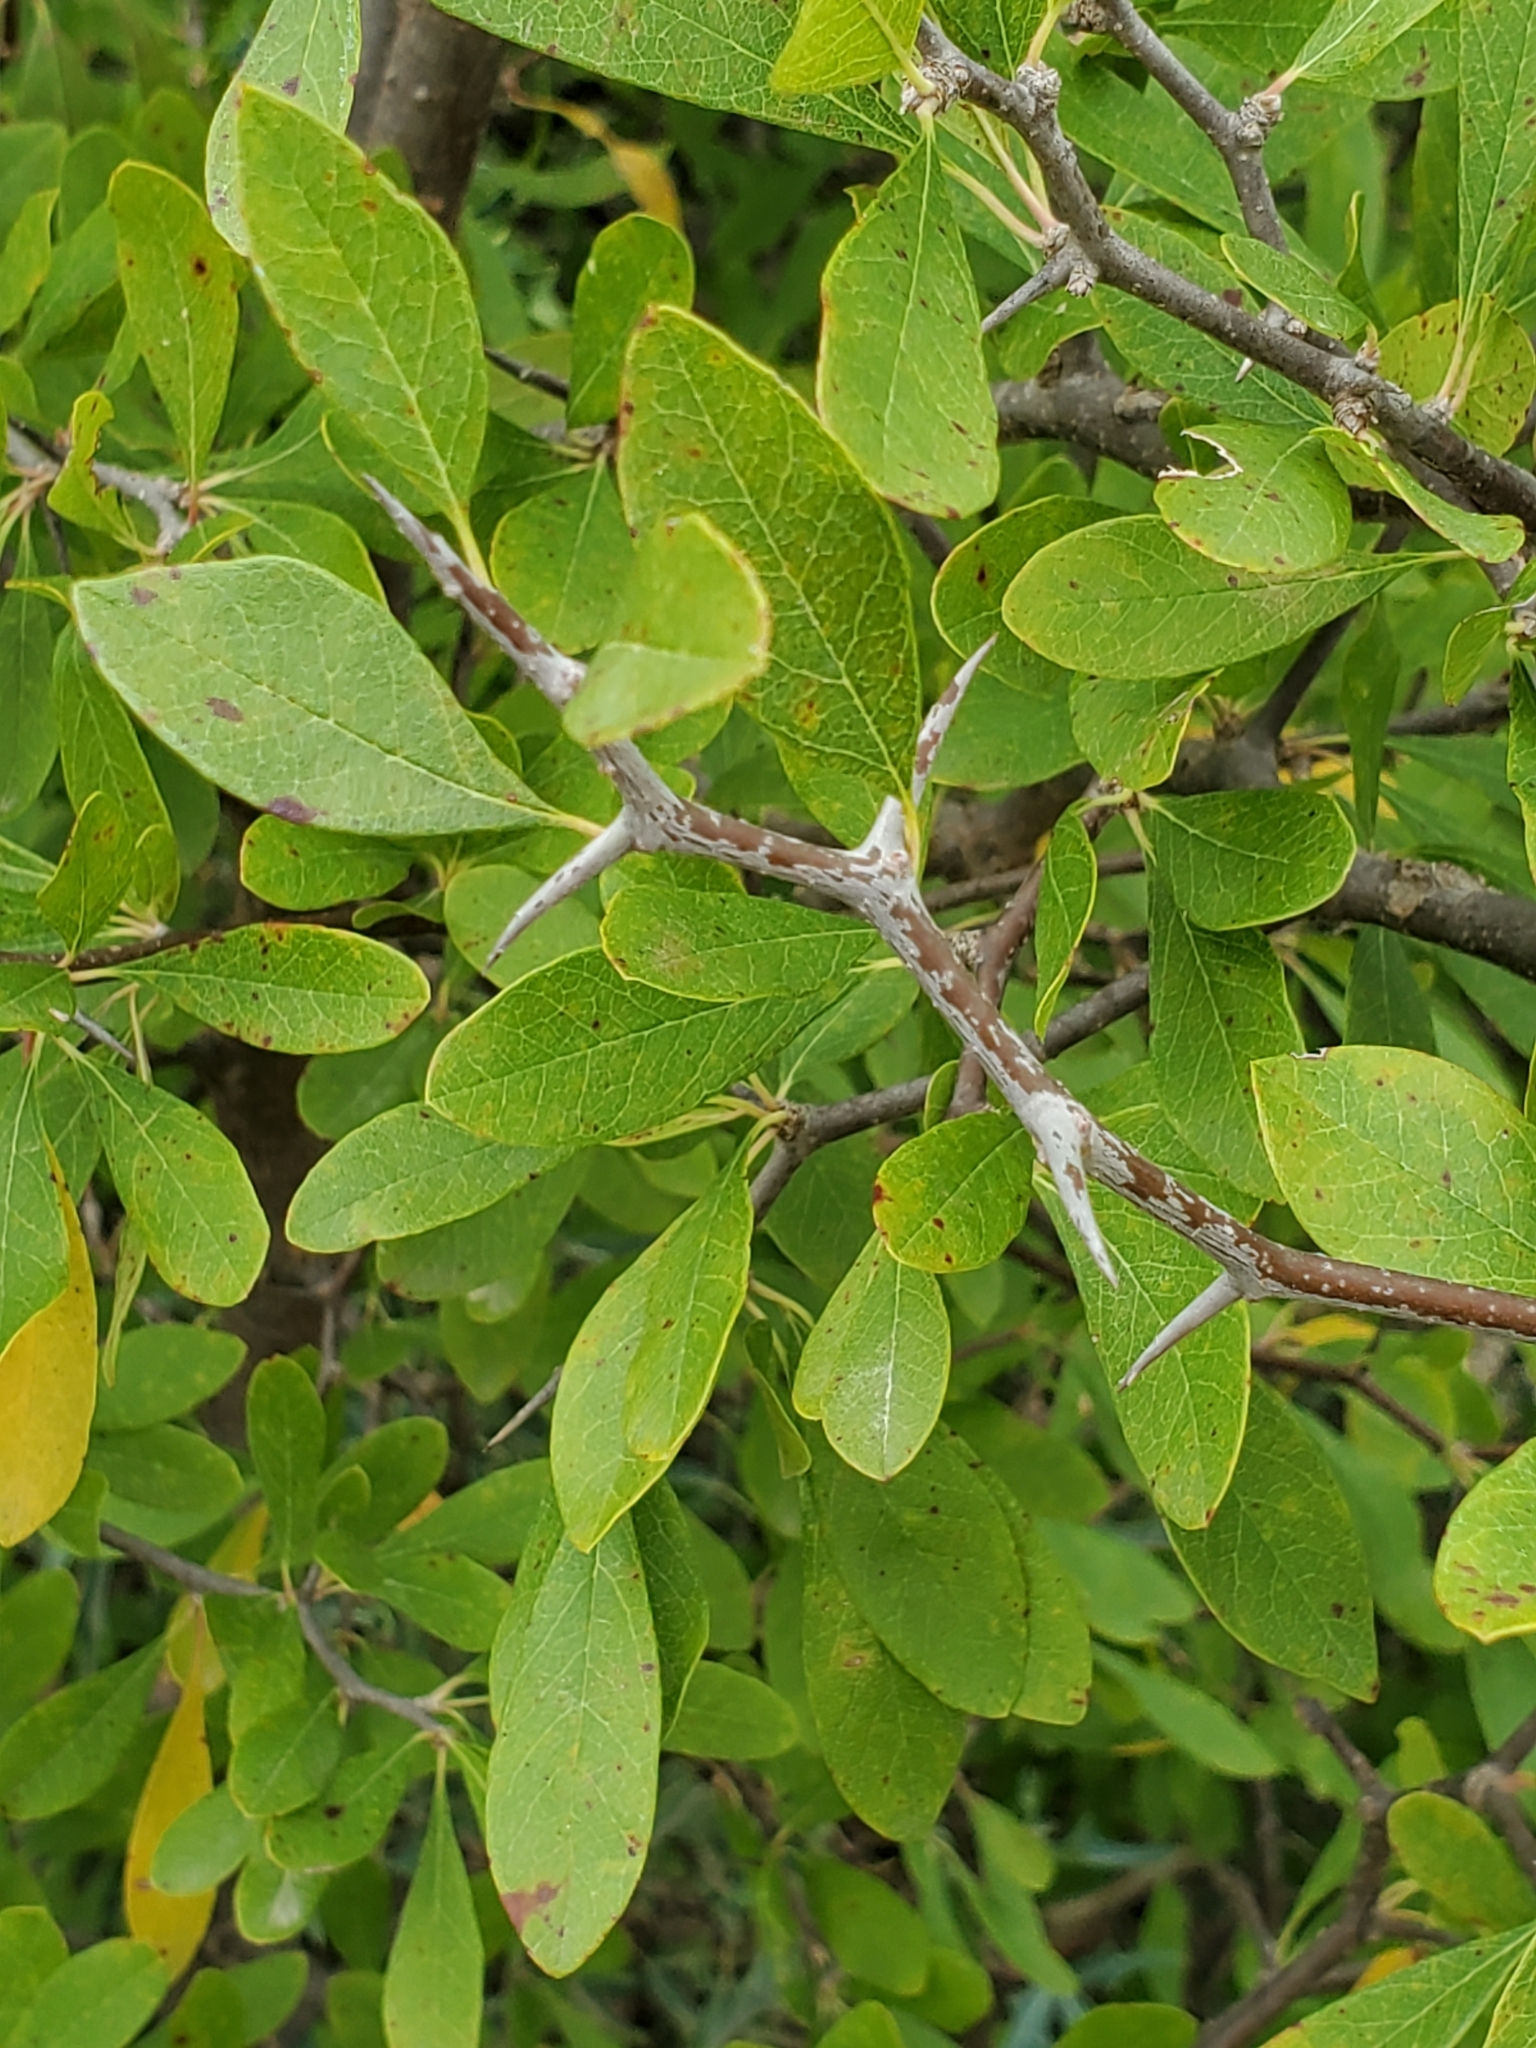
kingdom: Plantae
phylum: Tracheophyta
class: Magnoliopsida
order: Ericales
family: Sapotaceae
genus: Sideroxylon
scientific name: Sideroxylon lanuginosum
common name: Chittamwood
